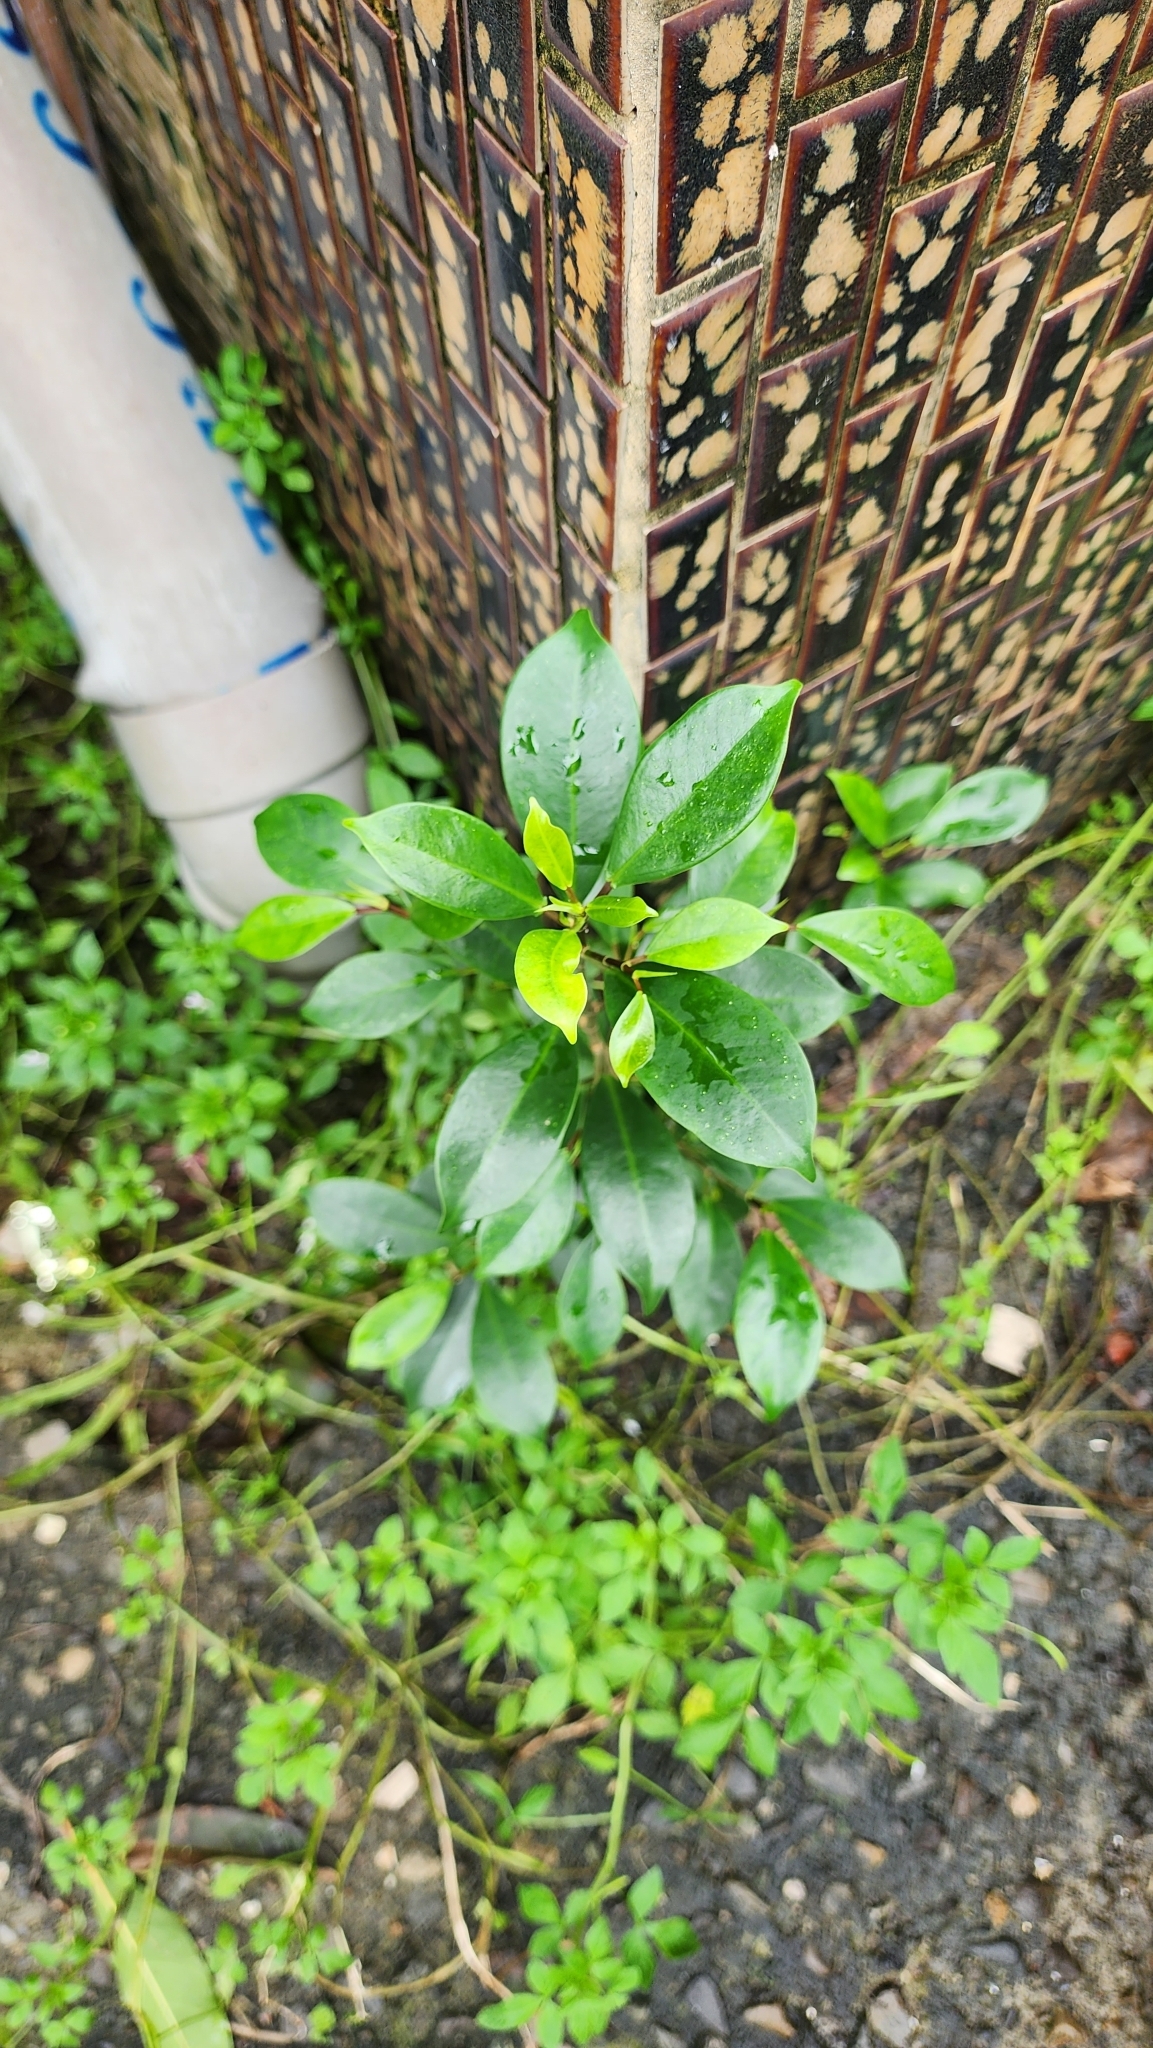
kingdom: Plantae
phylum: Tracheophyta
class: Magnoliopsida
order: Rosales
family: Moraceae
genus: Ficus
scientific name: Ficus microcarpa
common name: Chinese banyan
